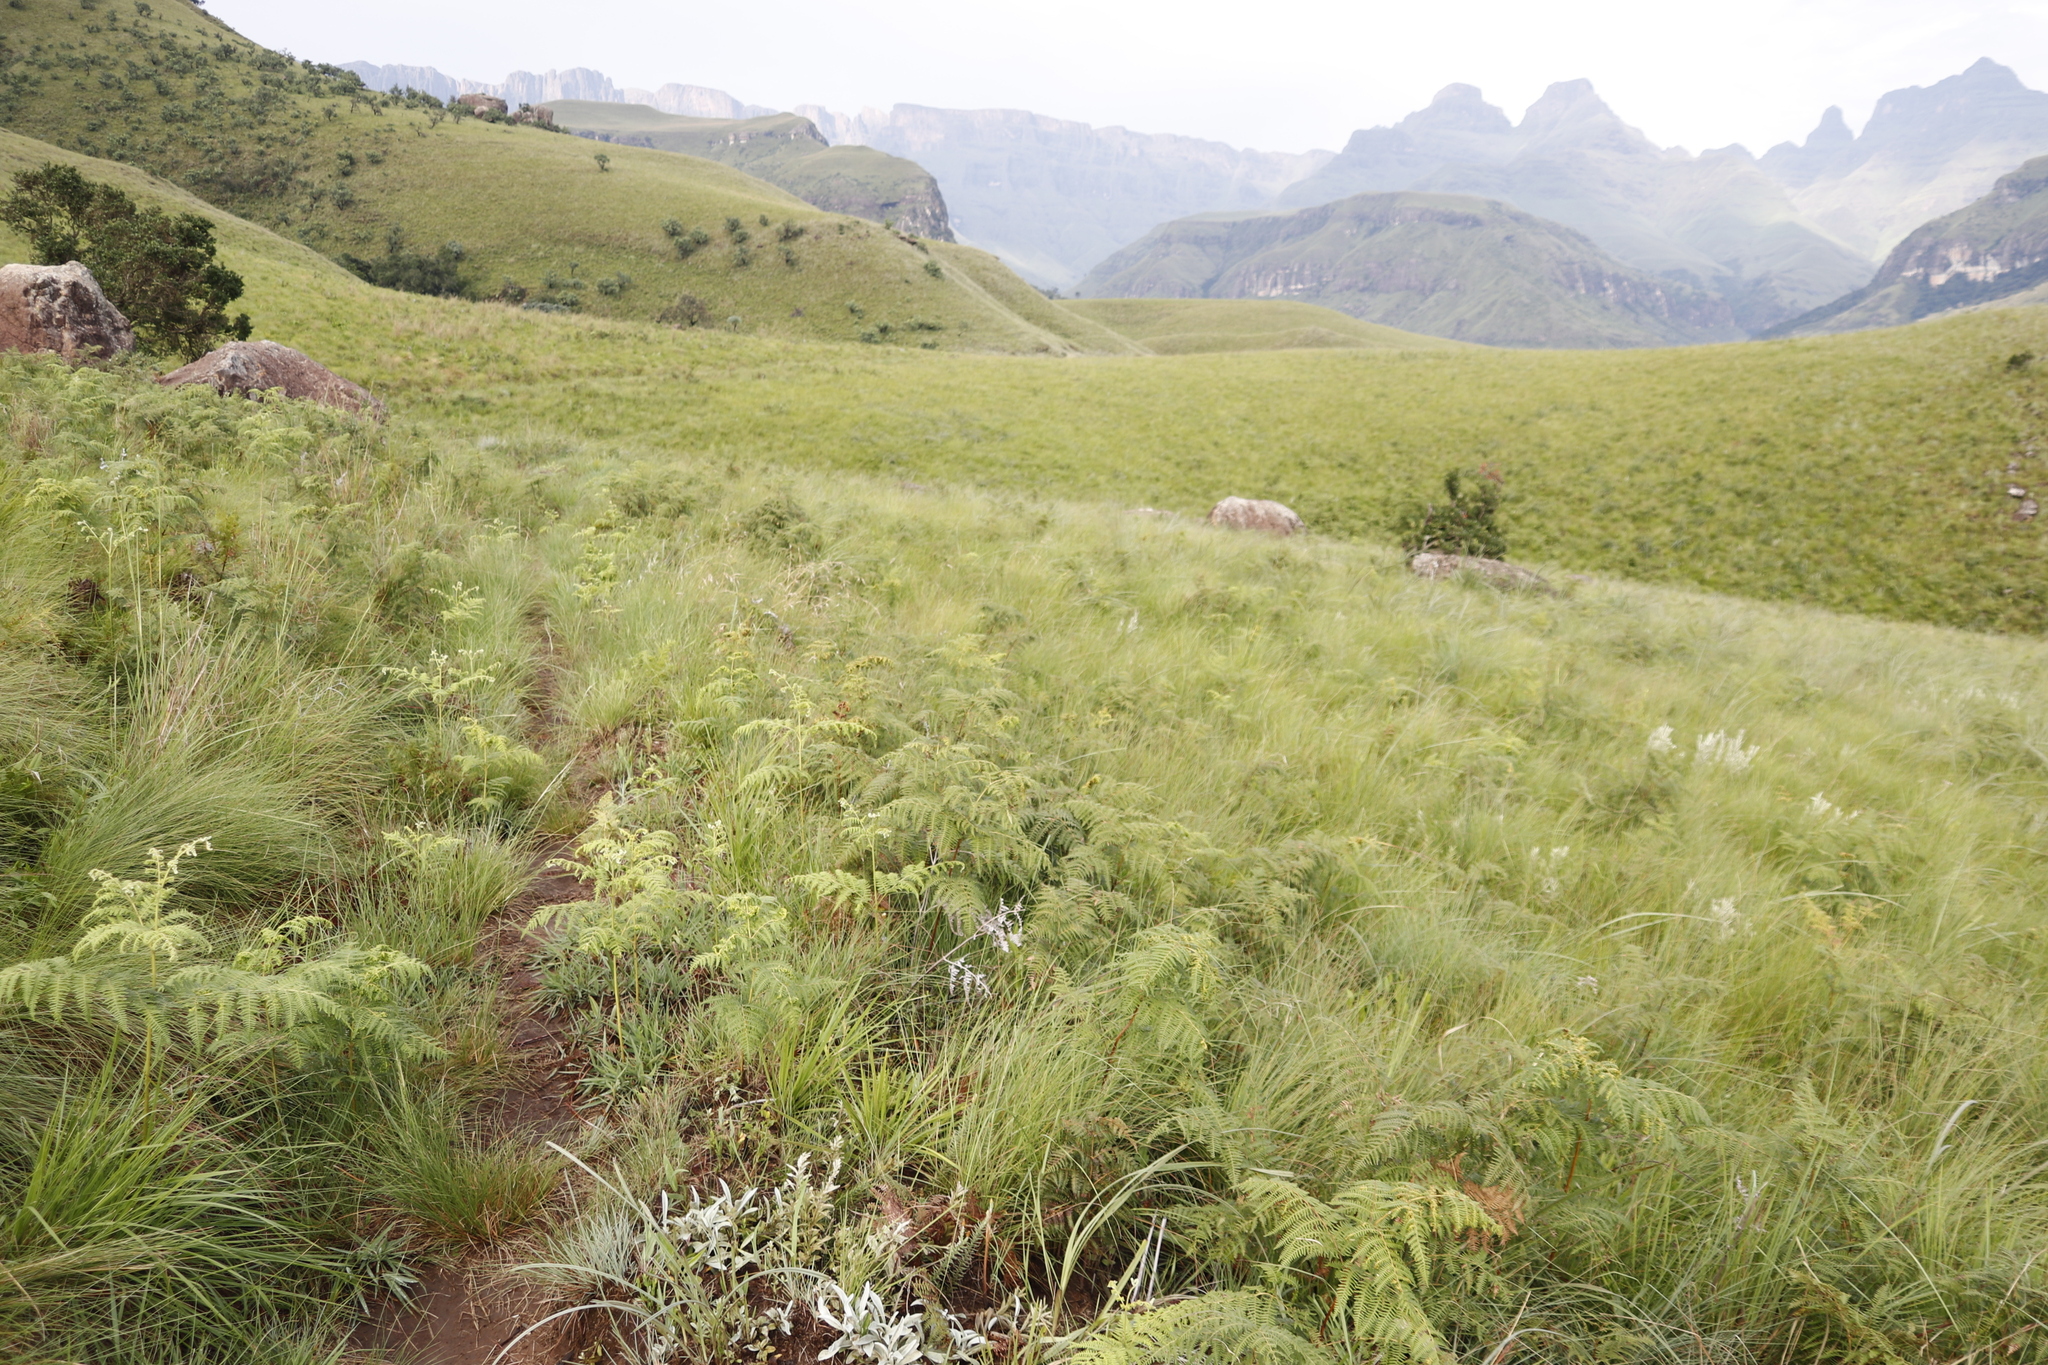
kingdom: Plantae
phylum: Tracheophyta
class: Polypodiopsida
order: Polypodiales
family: Dennstaedtiaceae
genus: Pteridium
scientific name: Pteridium aquilinum
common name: Bracken
